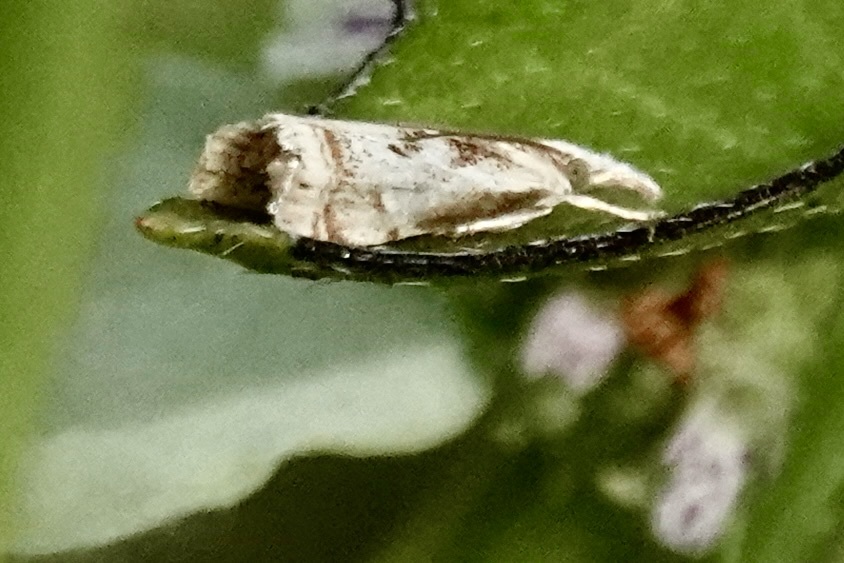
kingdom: Animalia
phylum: Arthropoda
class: Insecta
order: Lepidoptera
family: Crambidae
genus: Microcrambus
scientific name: Microcrambus elegans
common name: Elegant grass-veneer
